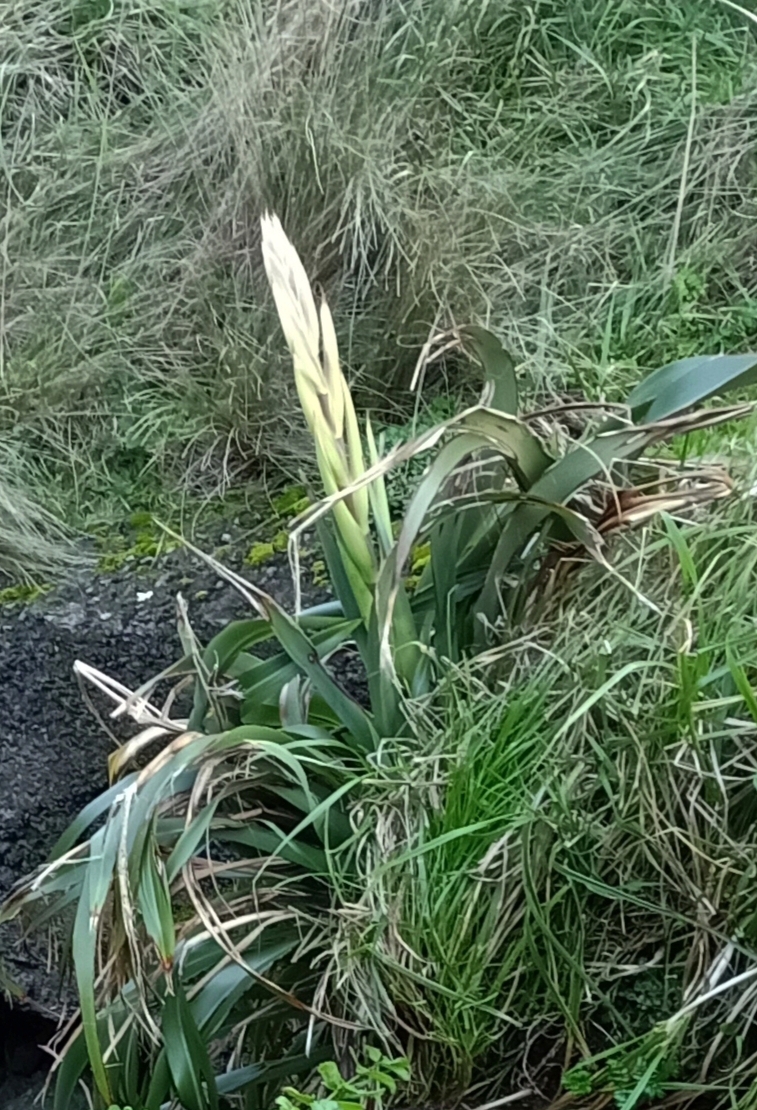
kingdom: Plantae
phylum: Tracheophyta
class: Liliopsida
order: Asparagales
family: Asphodelaceae
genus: Phormium
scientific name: Phormium colensoi
